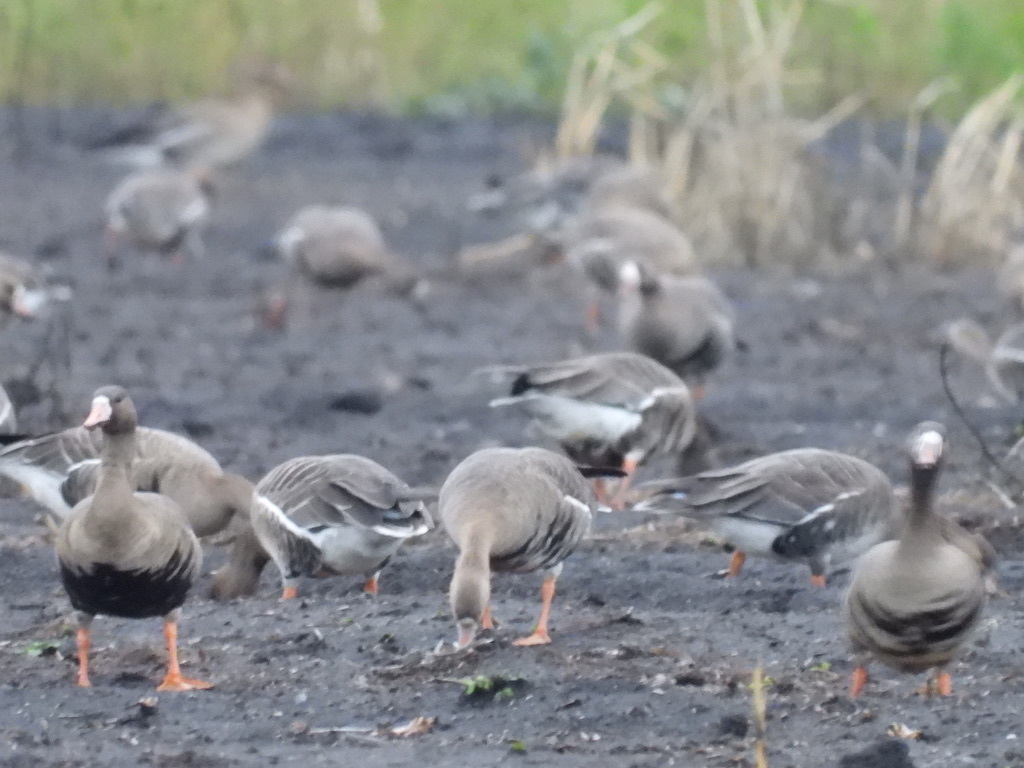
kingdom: Animalia
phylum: Chordata
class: Aves
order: Anseriformes
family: Anatidae
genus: Anser
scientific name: Anser albifrons
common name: Greater white-fronted goose
